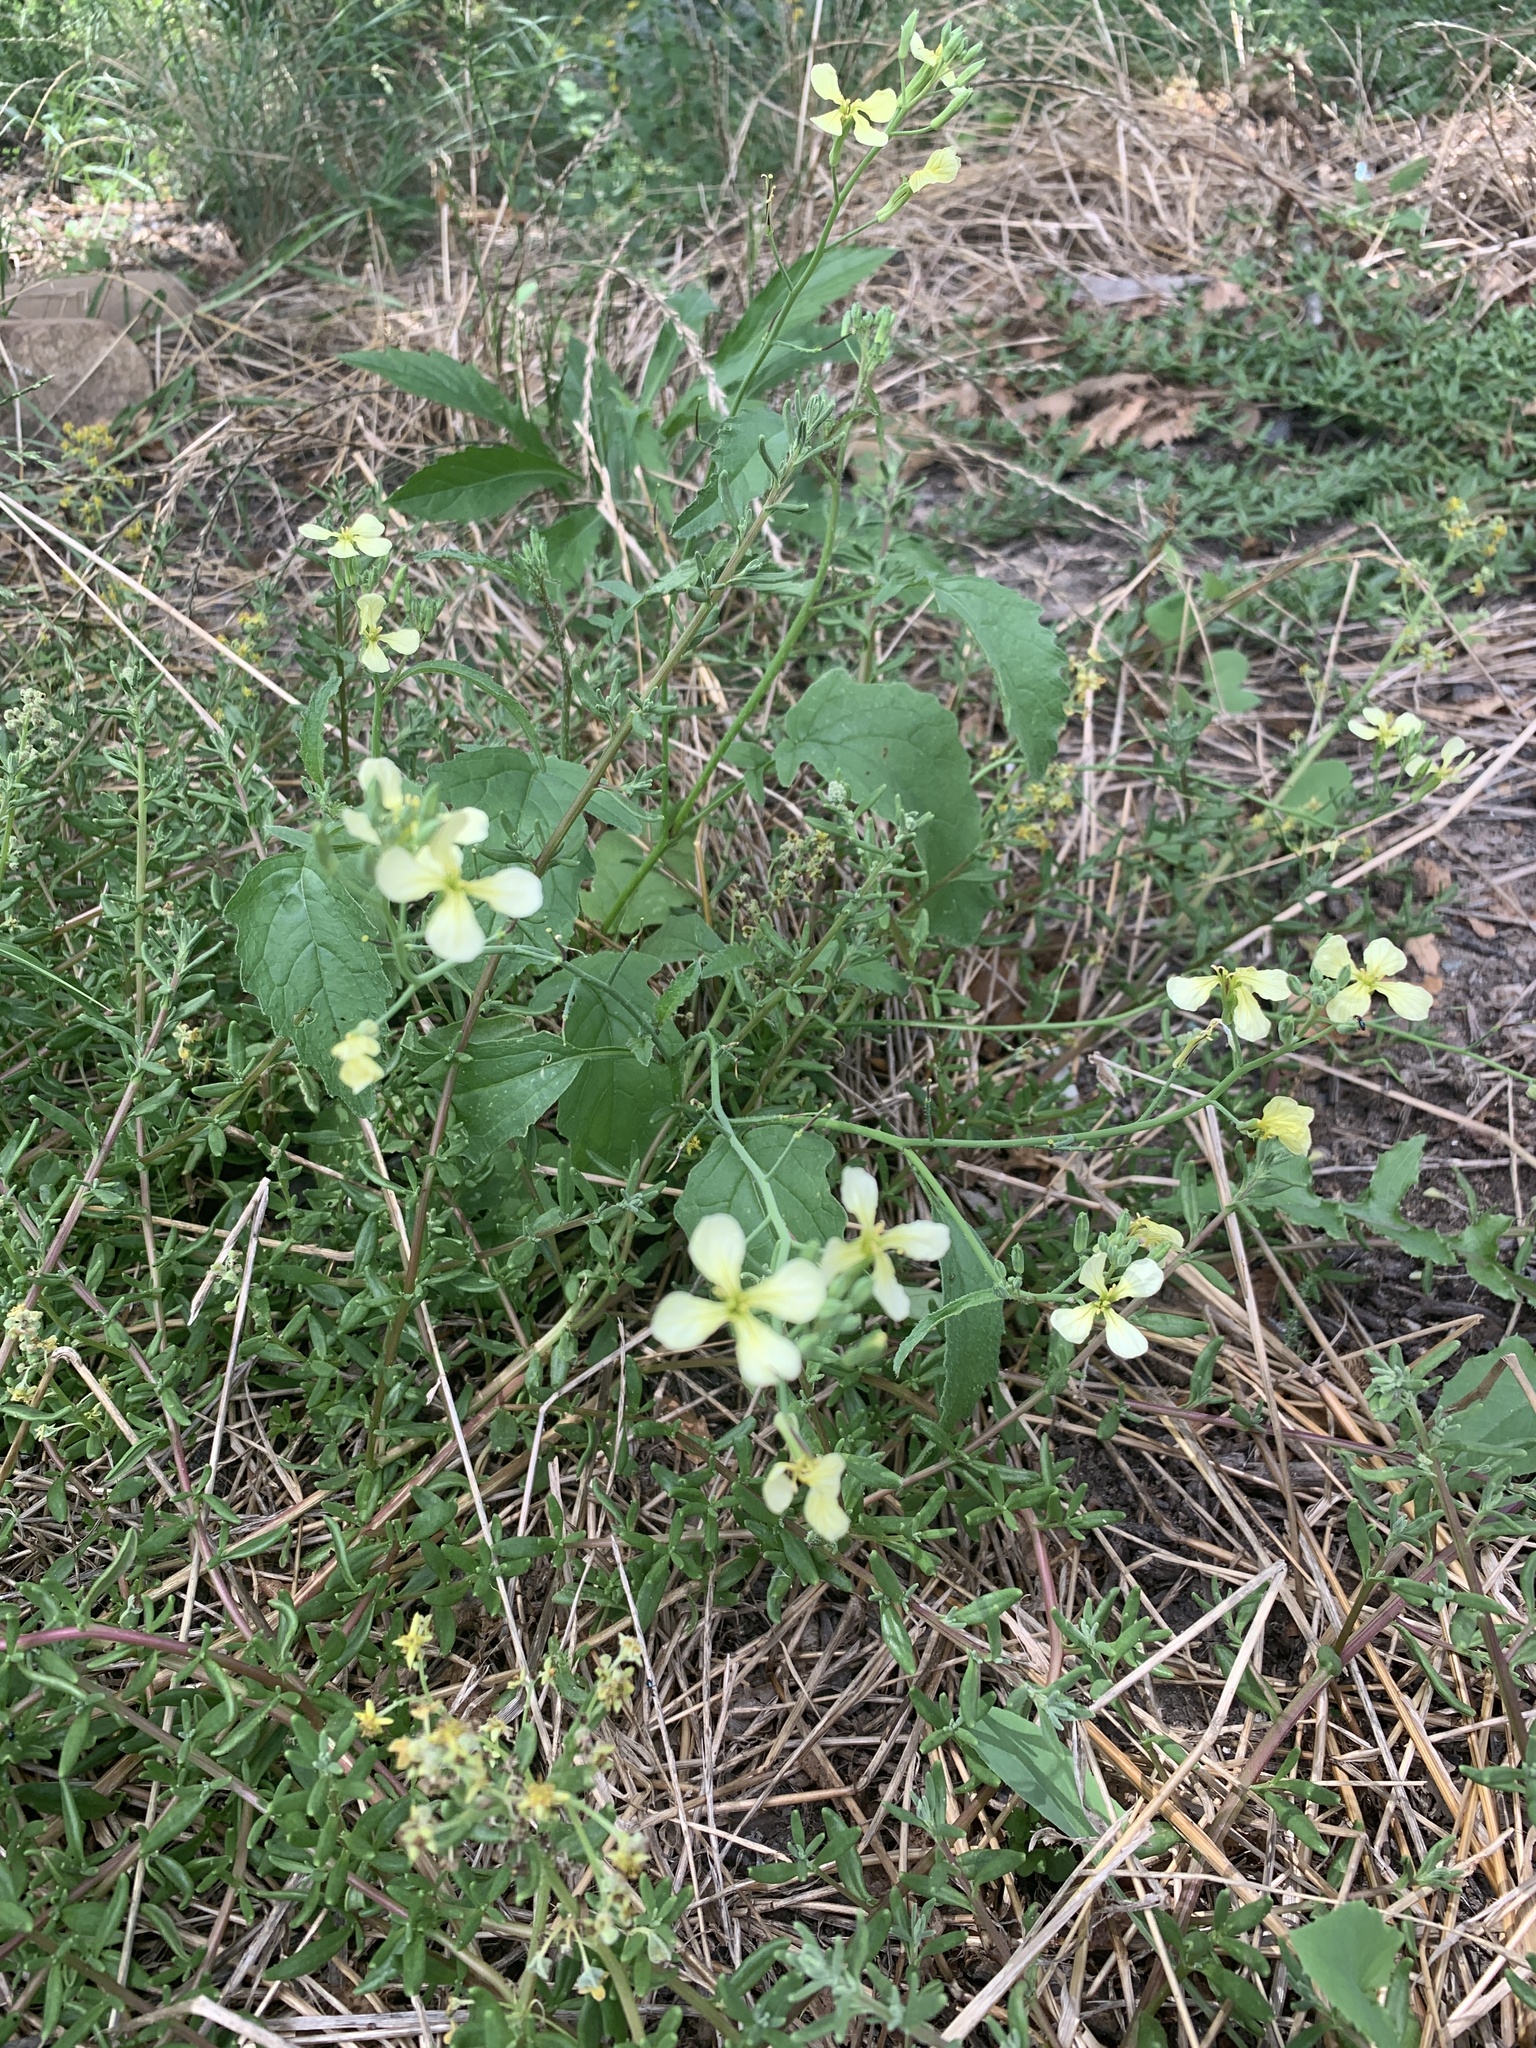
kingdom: Plantae
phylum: Tracheophyta
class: Magnoliopsida
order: Brassicales
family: Brassicaceae
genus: Raphanus
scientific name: Raphanus raphanistrum
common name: Wild radish
